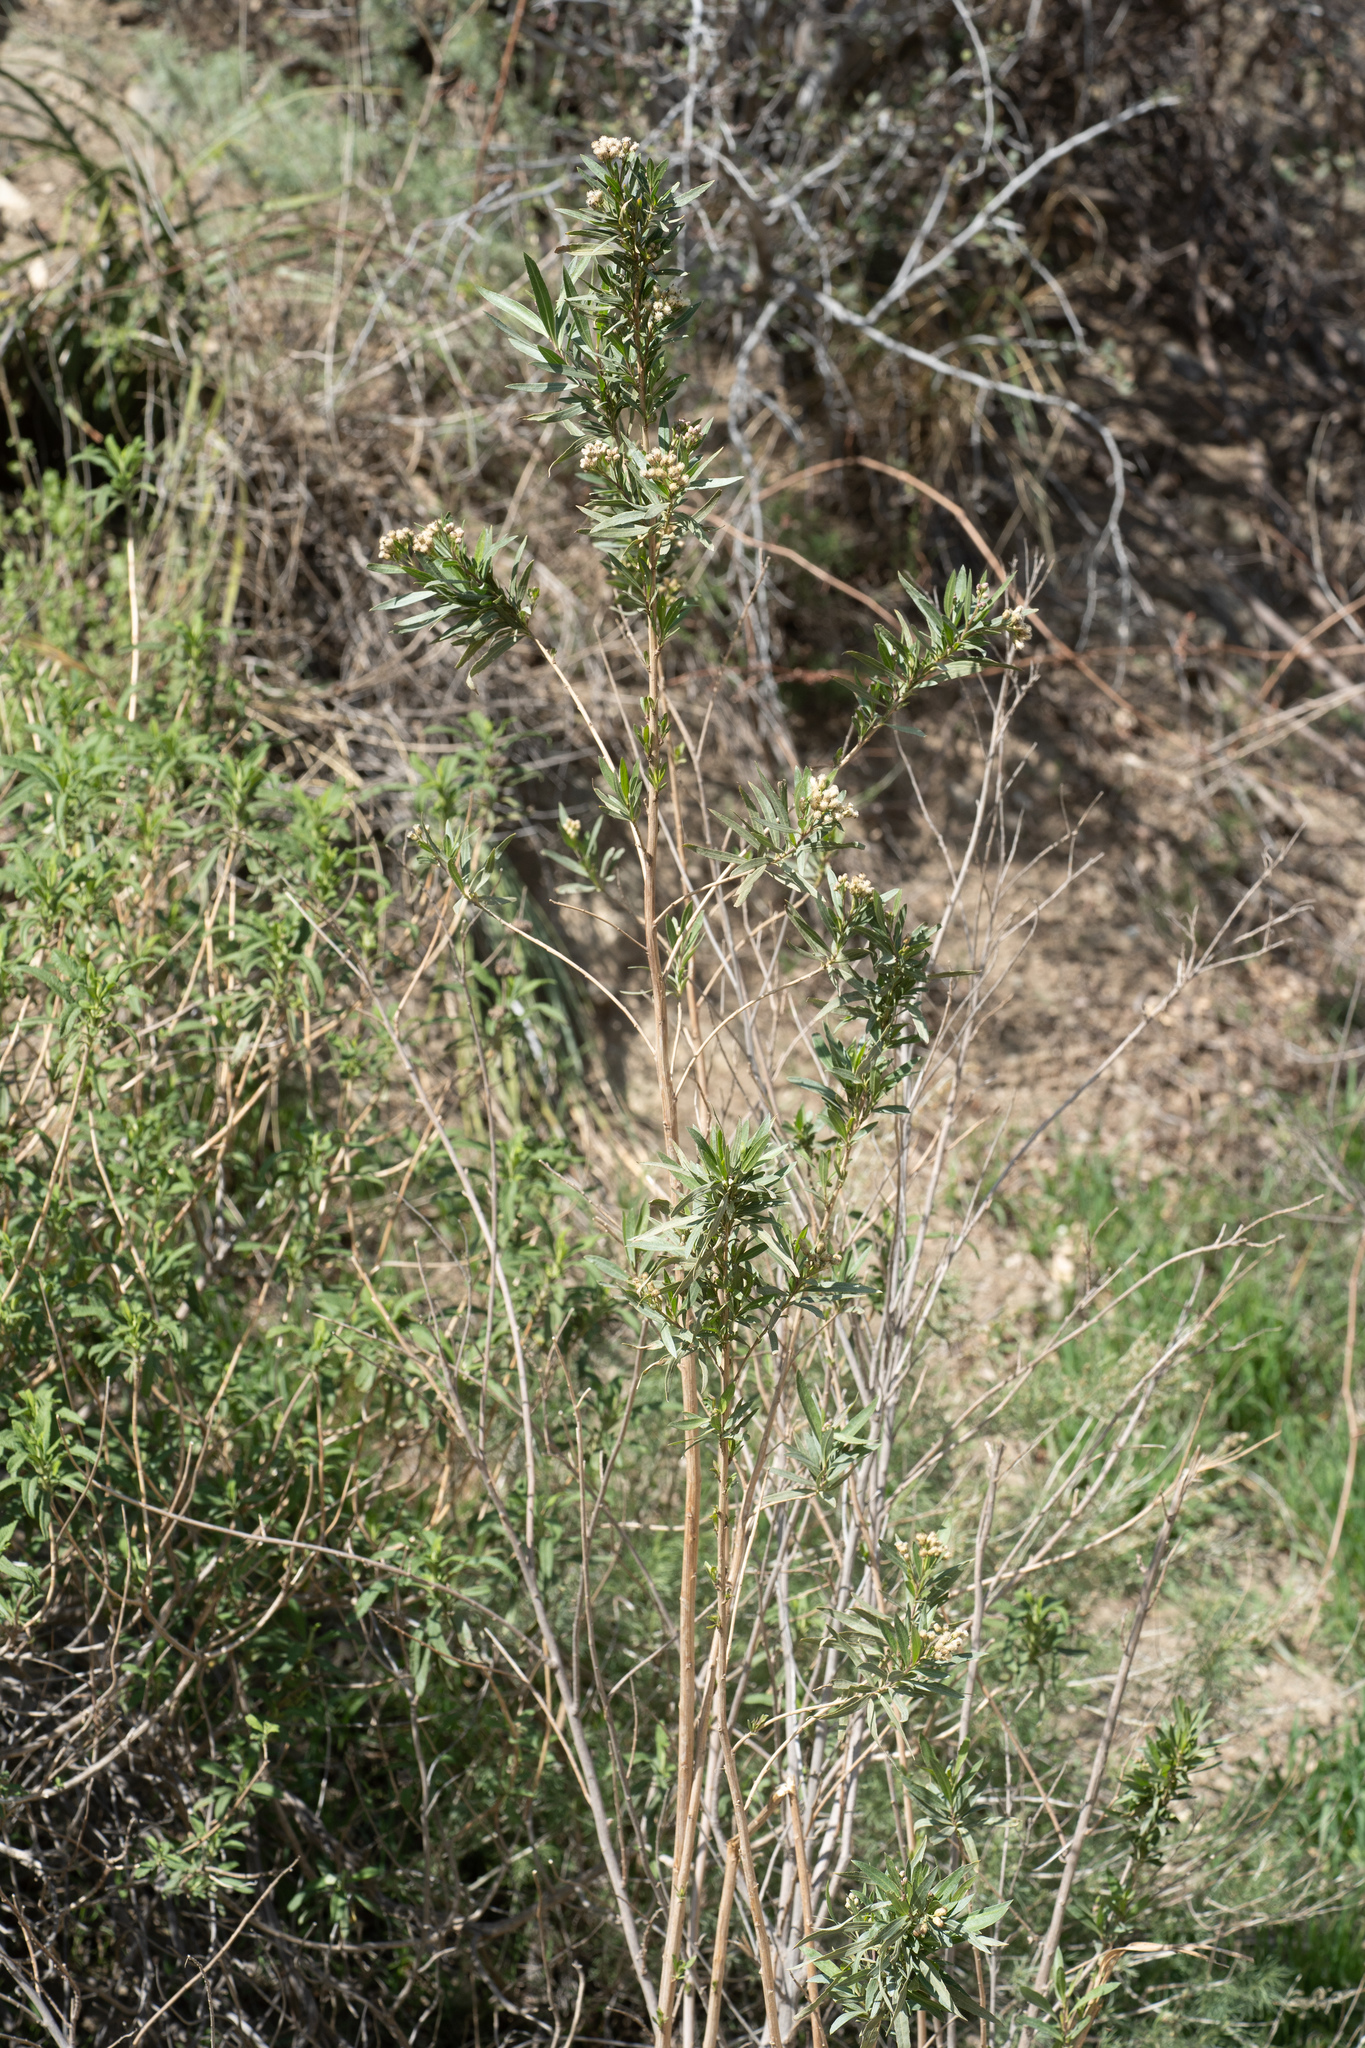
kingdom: Plantae
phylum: Tracheophyta
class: Magnoliopsida
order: Asterales
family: Asteraceae
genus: Baccharis
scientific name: Baccharis salicifolia
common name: Sticky baccharis
